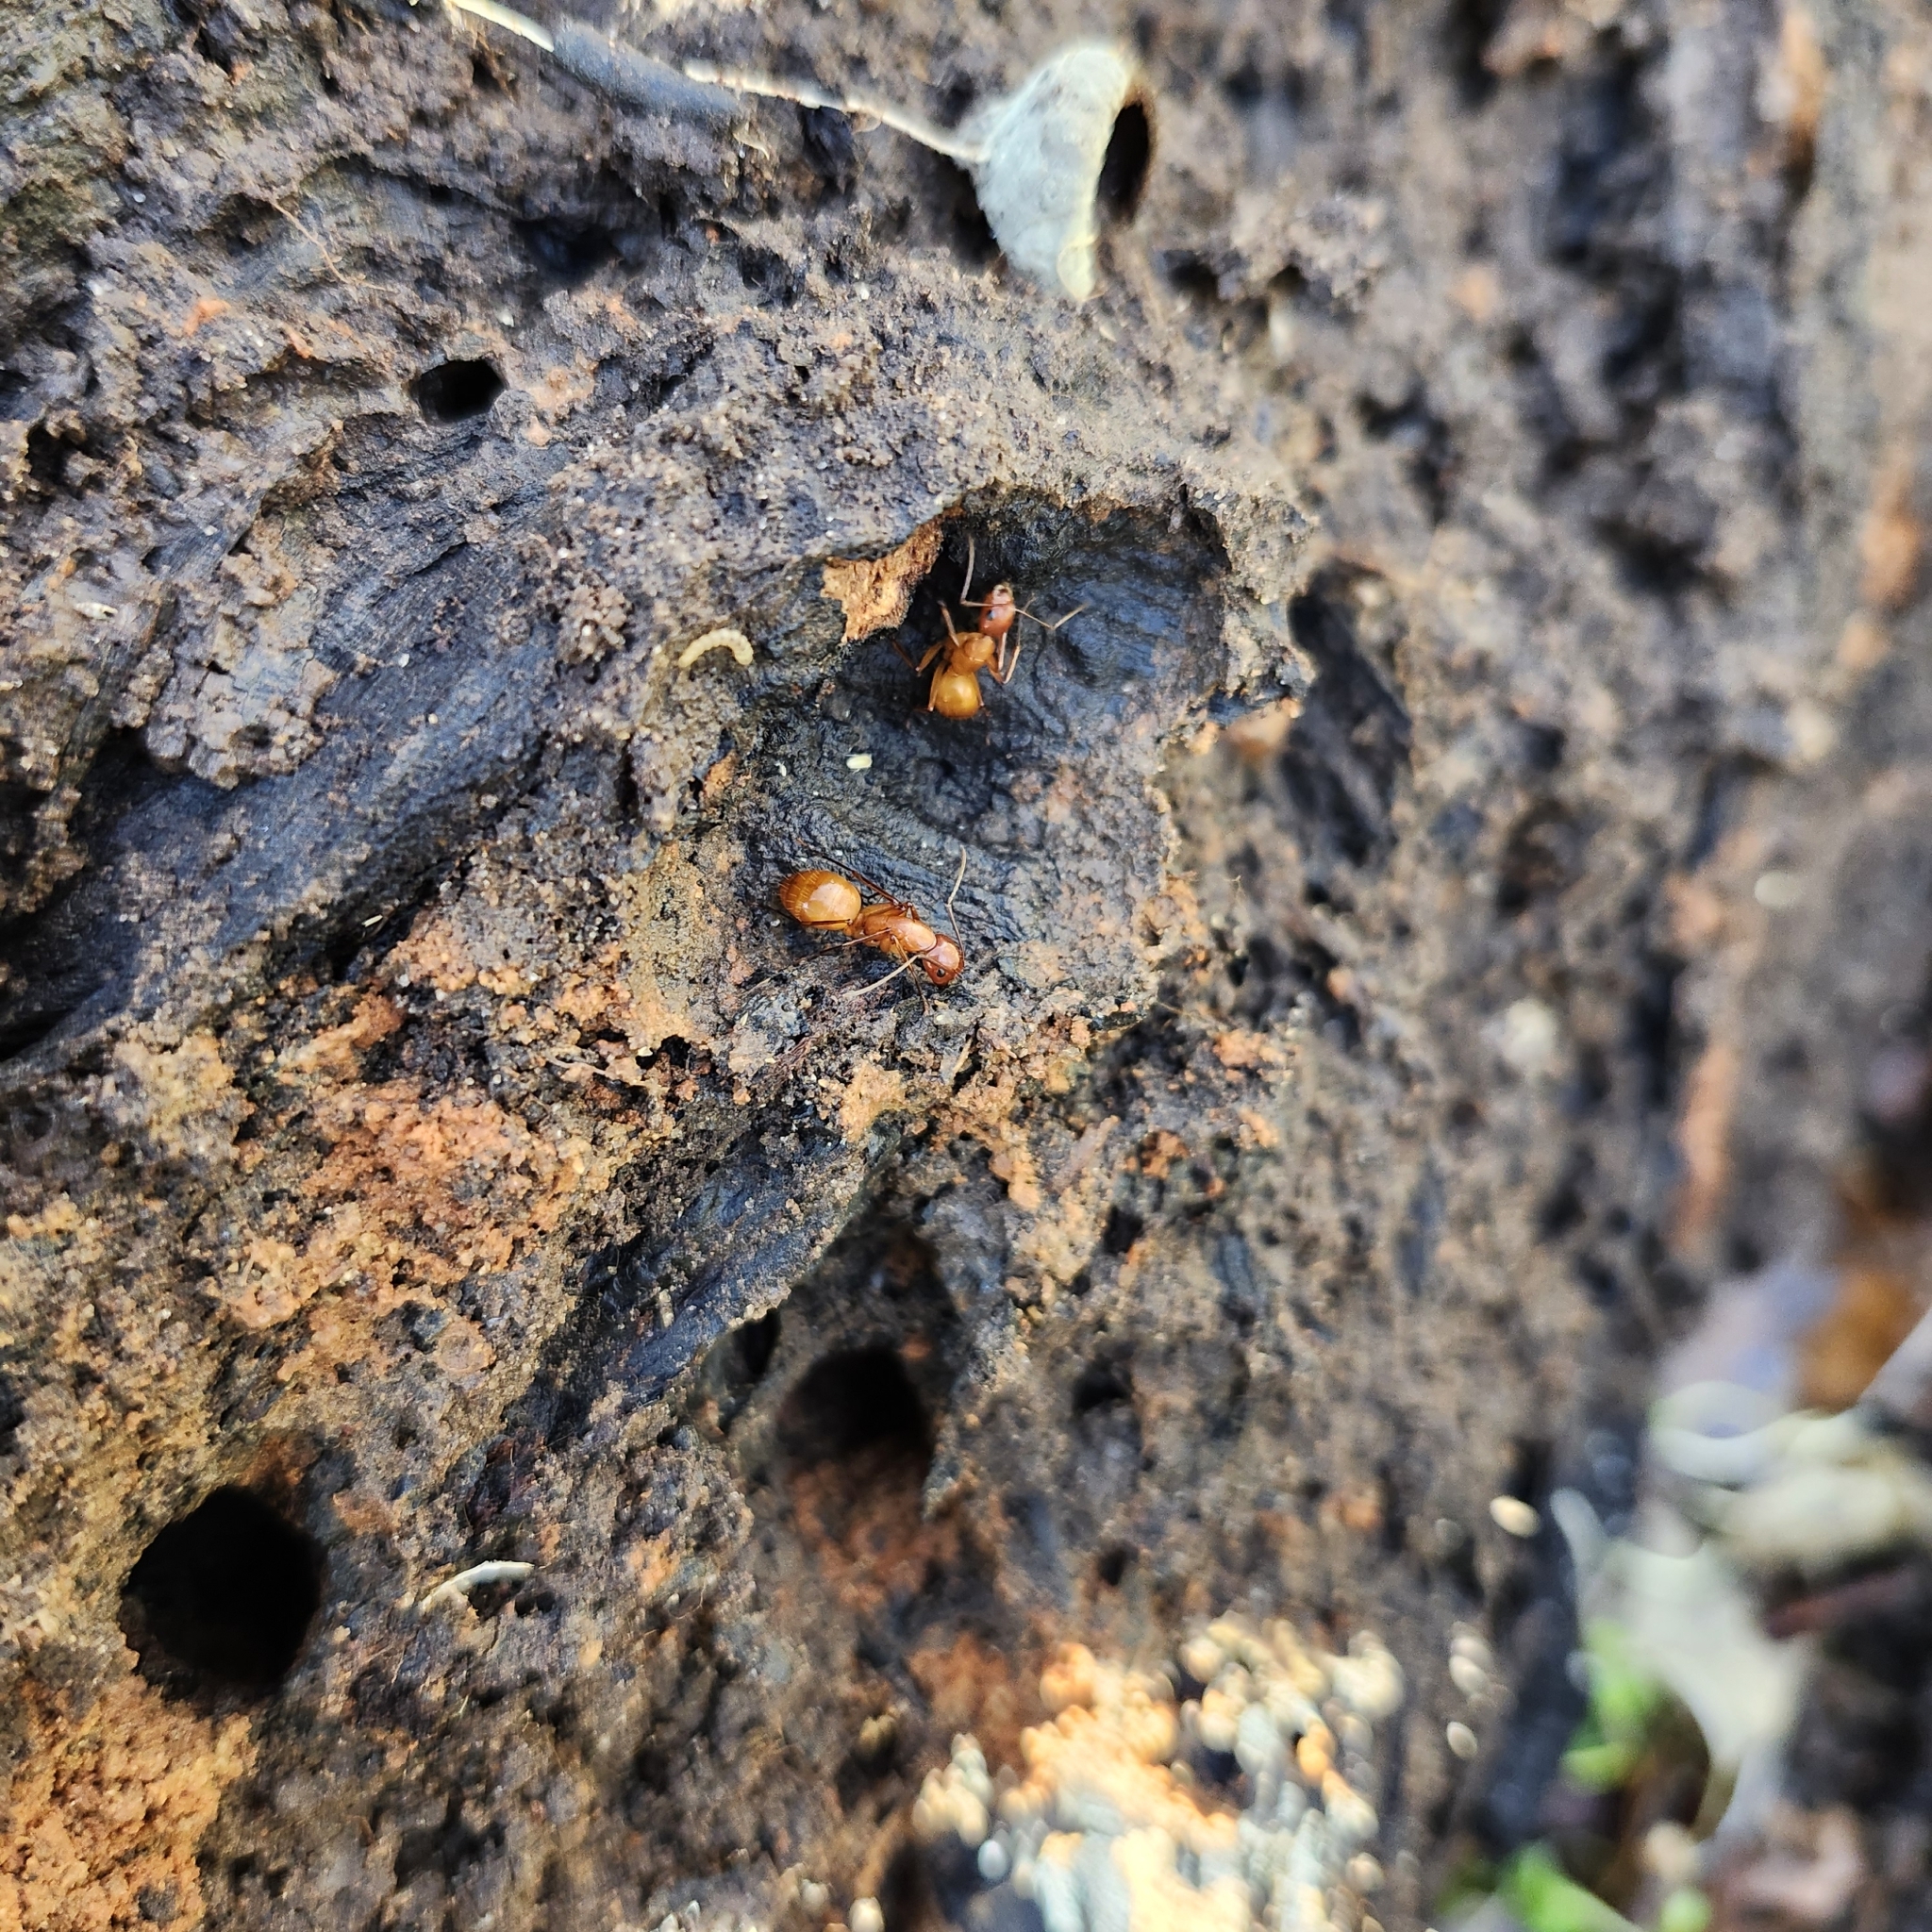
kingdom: Animalia
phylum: Arthropoda
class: Insecta
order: Hymenoptera
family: Formicidae
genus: Camponotus
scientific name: Camponotus castaneus
